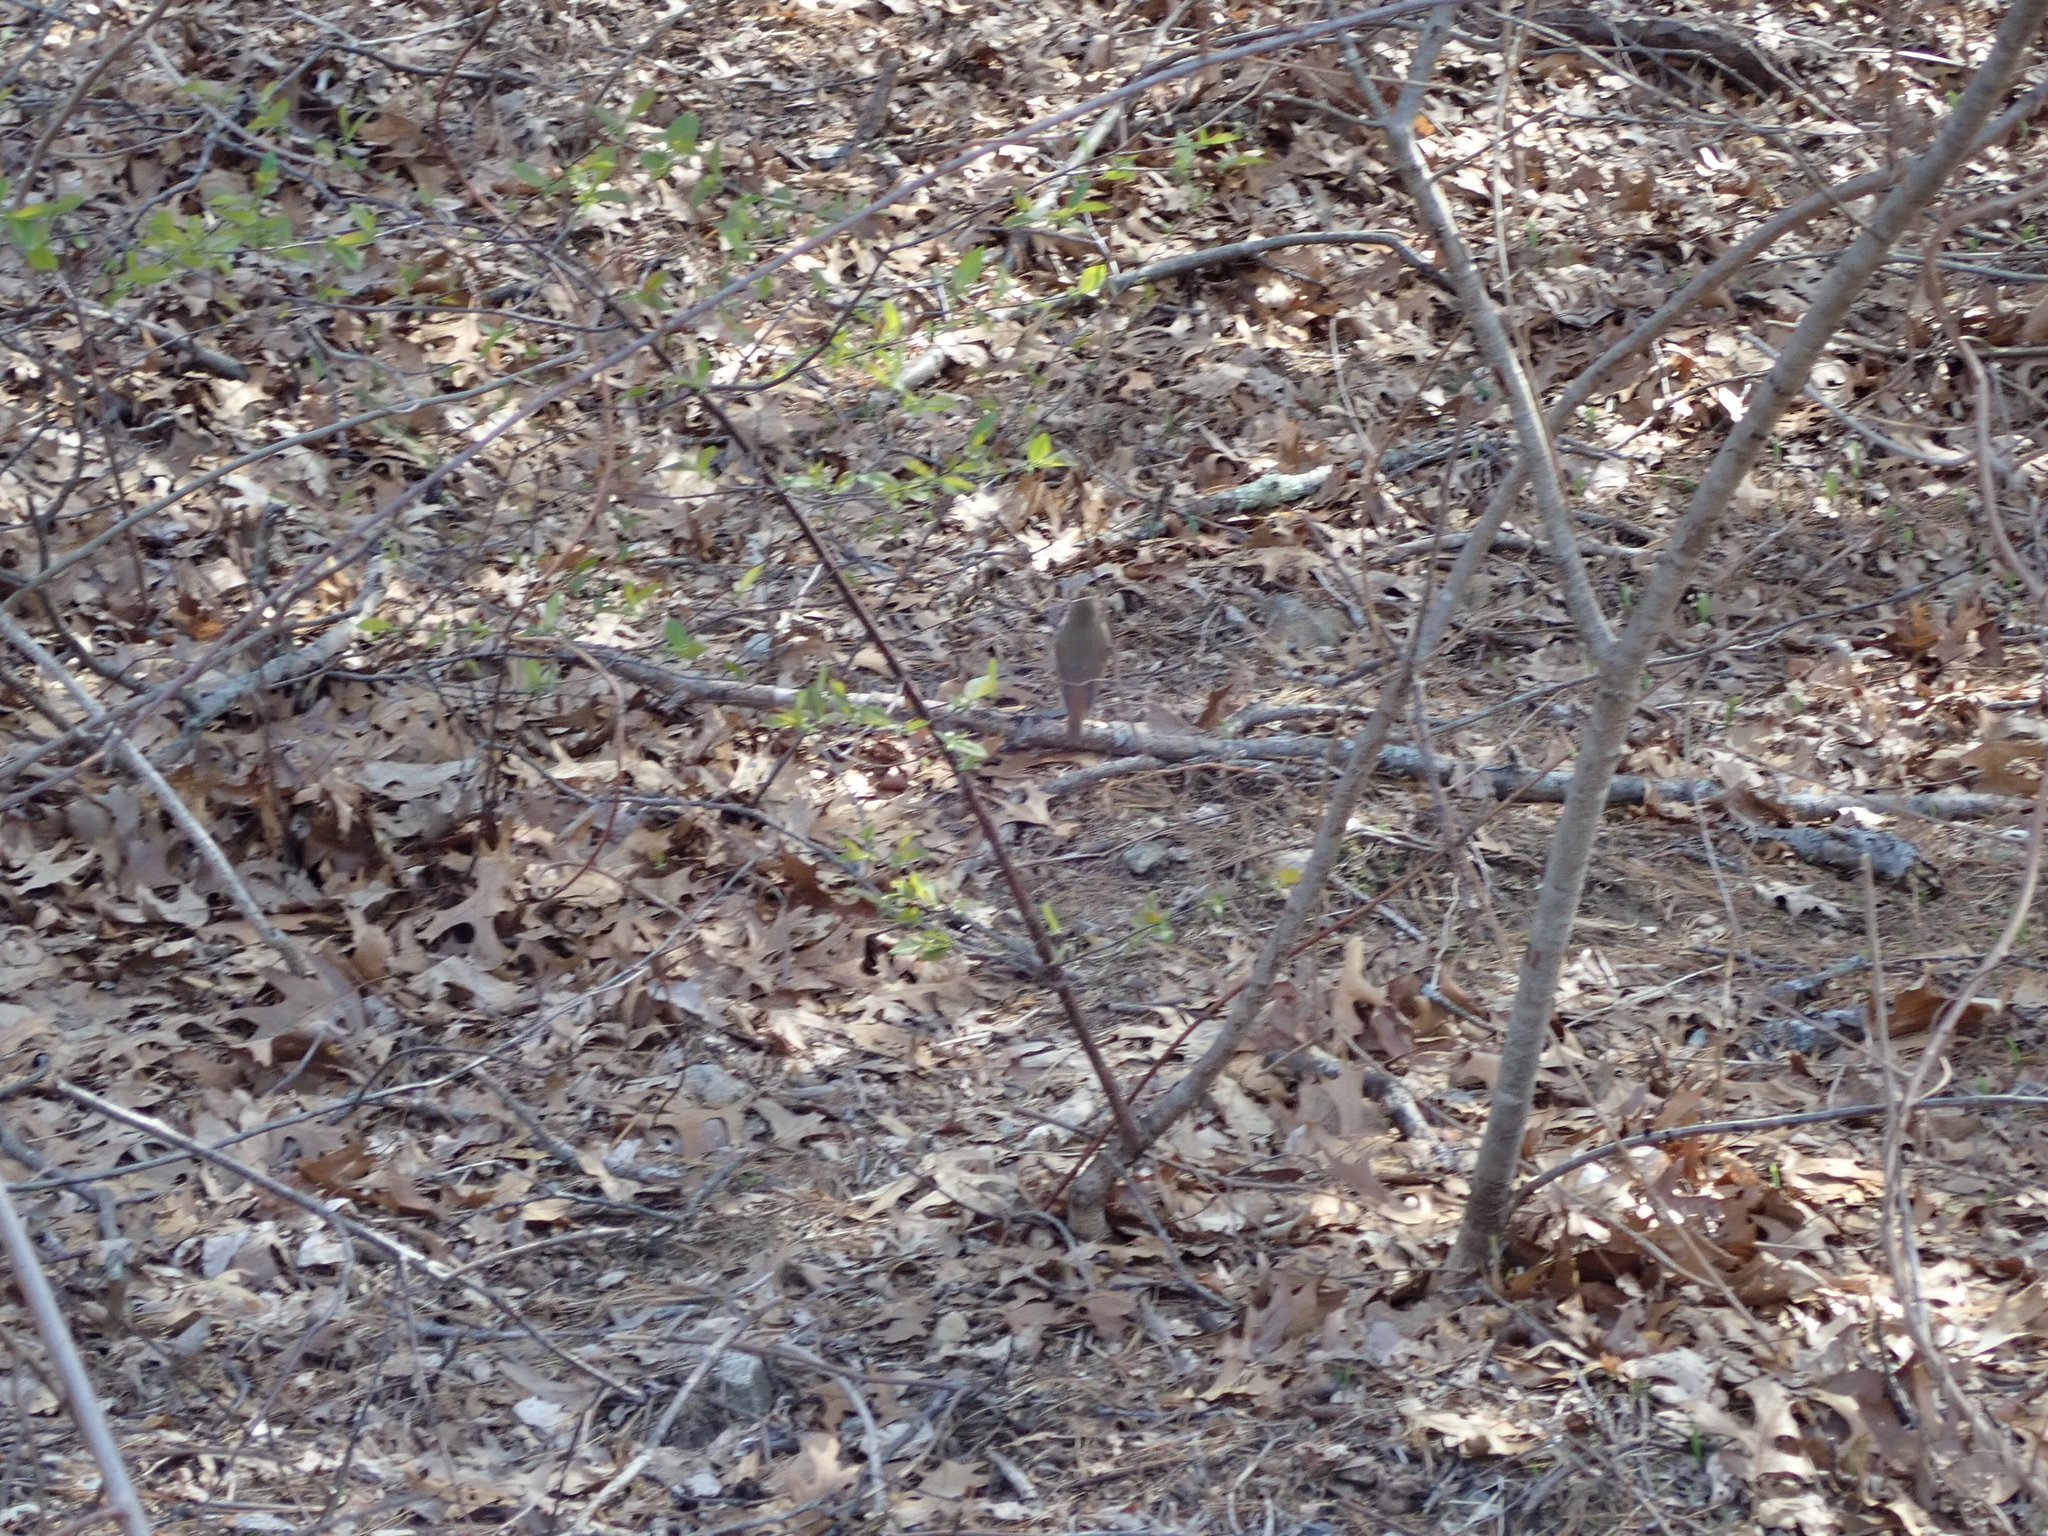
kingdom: Animalia
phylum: Chordata
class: Aves
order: Passeriformes
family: Turdidae
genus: Catharus
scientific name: Catharus guttatus
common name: Hermit thrush
